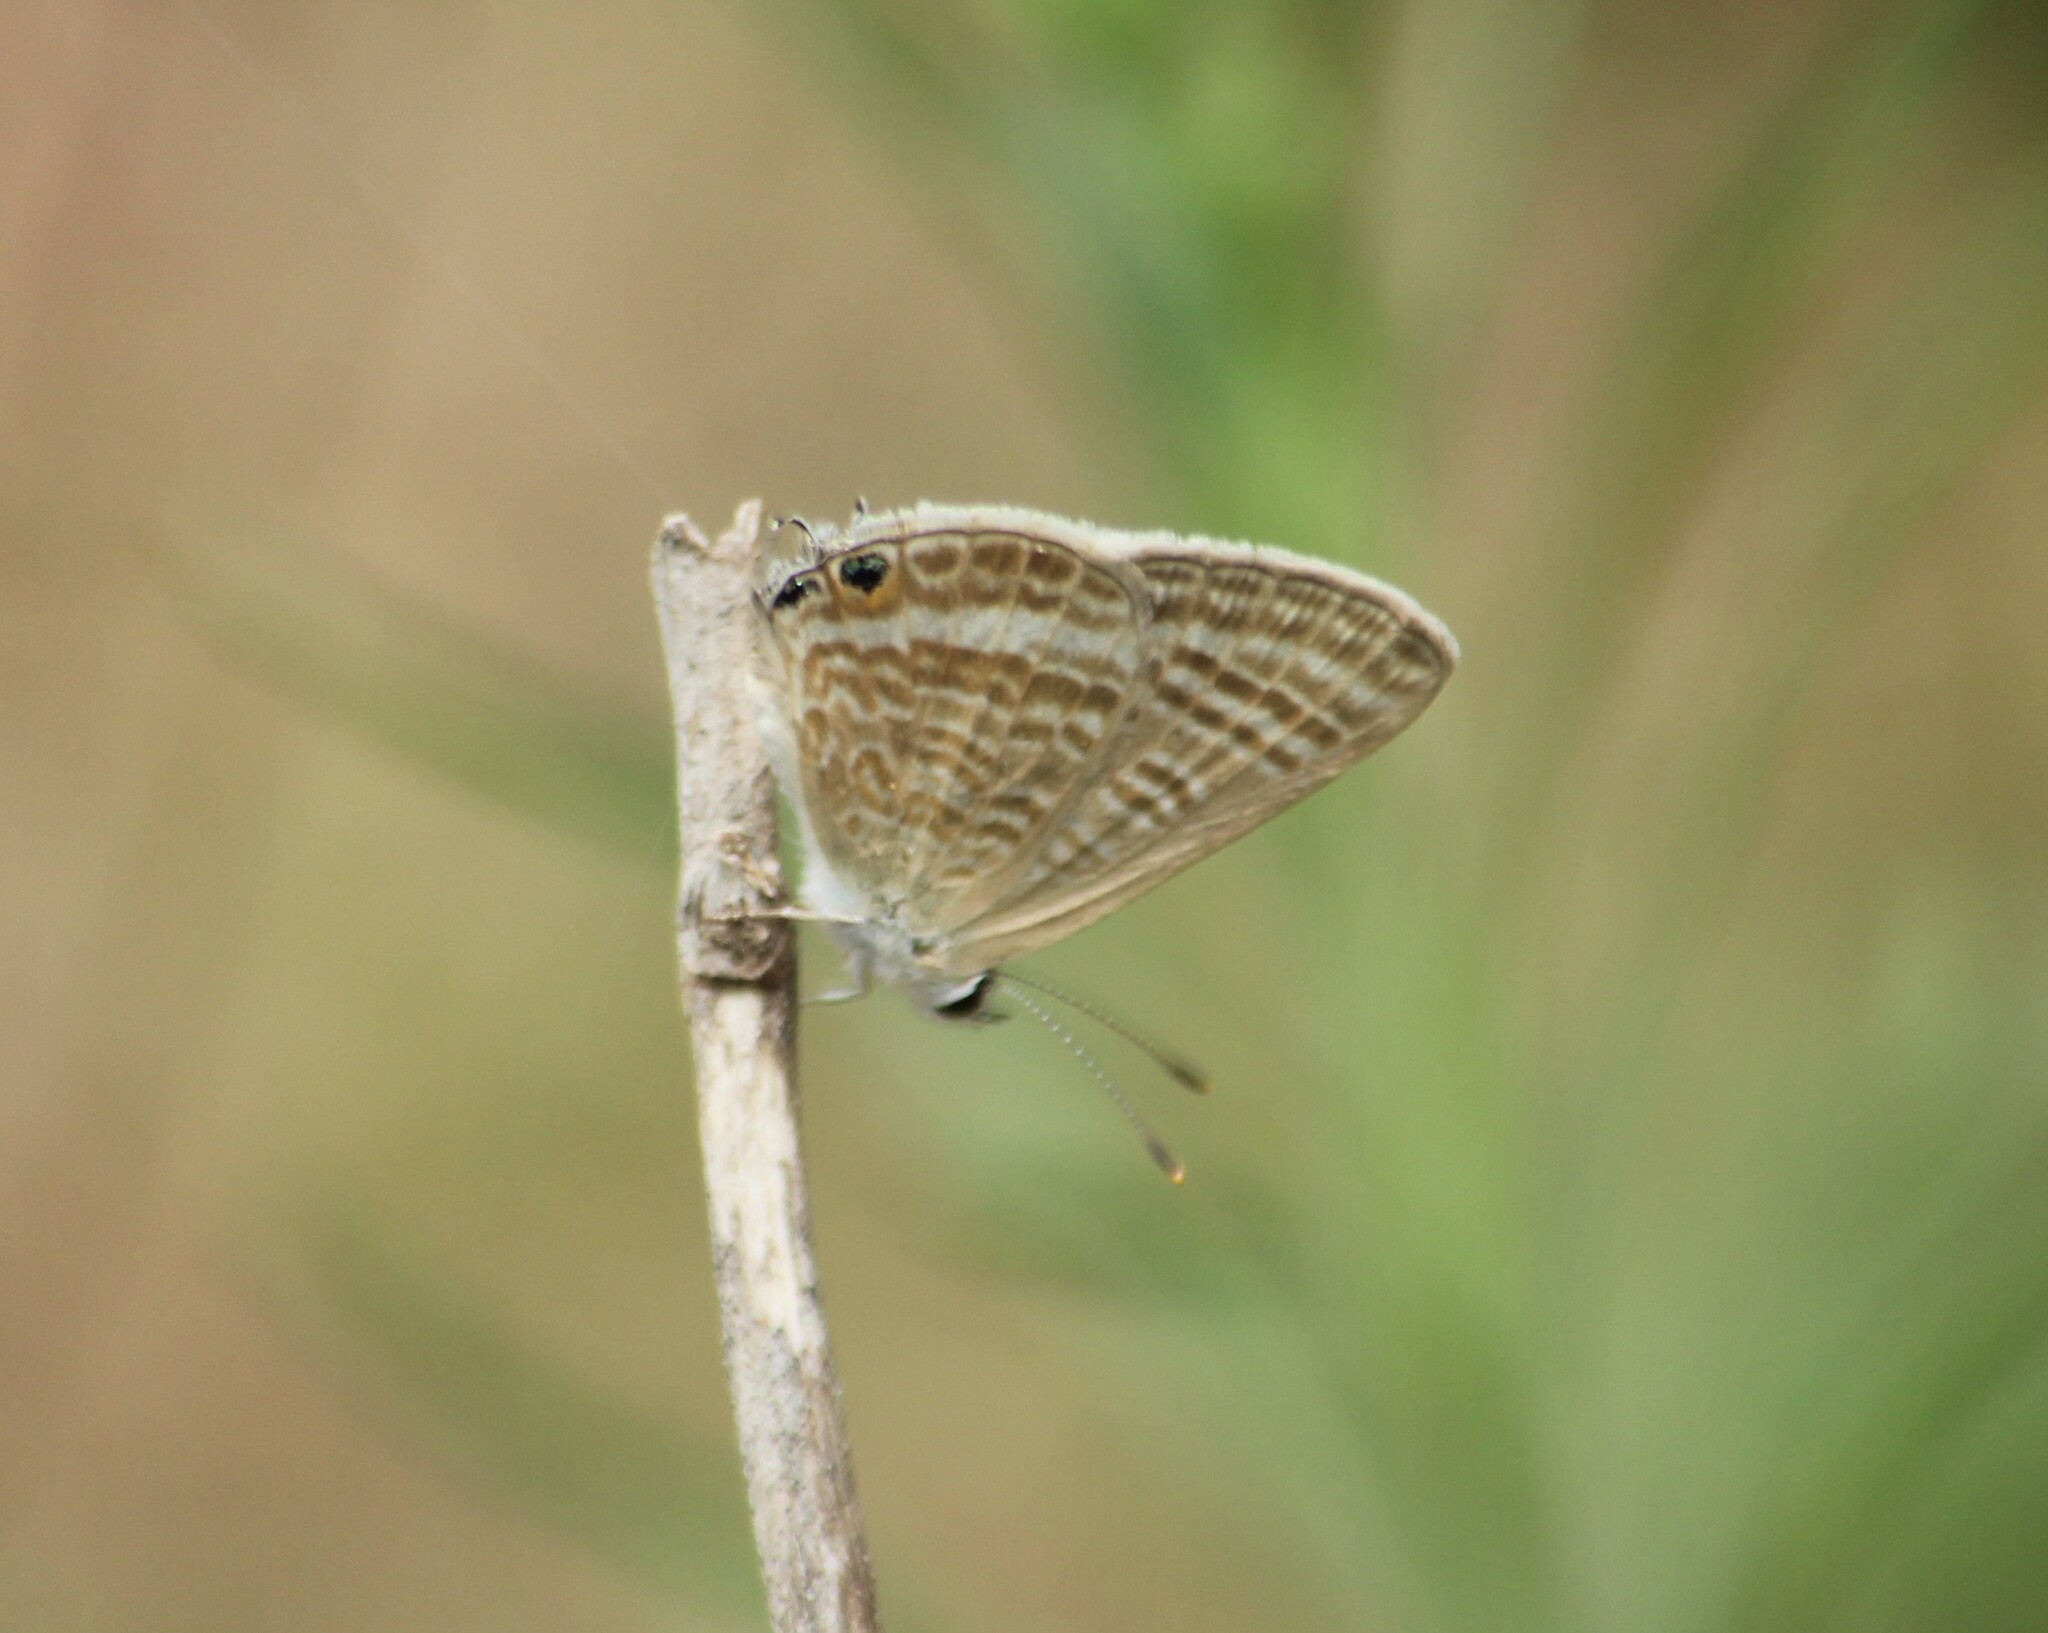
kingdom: Animalia
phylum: Arthropoda
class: Insecta
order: Lepidoptera
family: Lycaenidae
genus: Lampides
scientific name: Lampides boeticus
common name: Long-tailed blue
